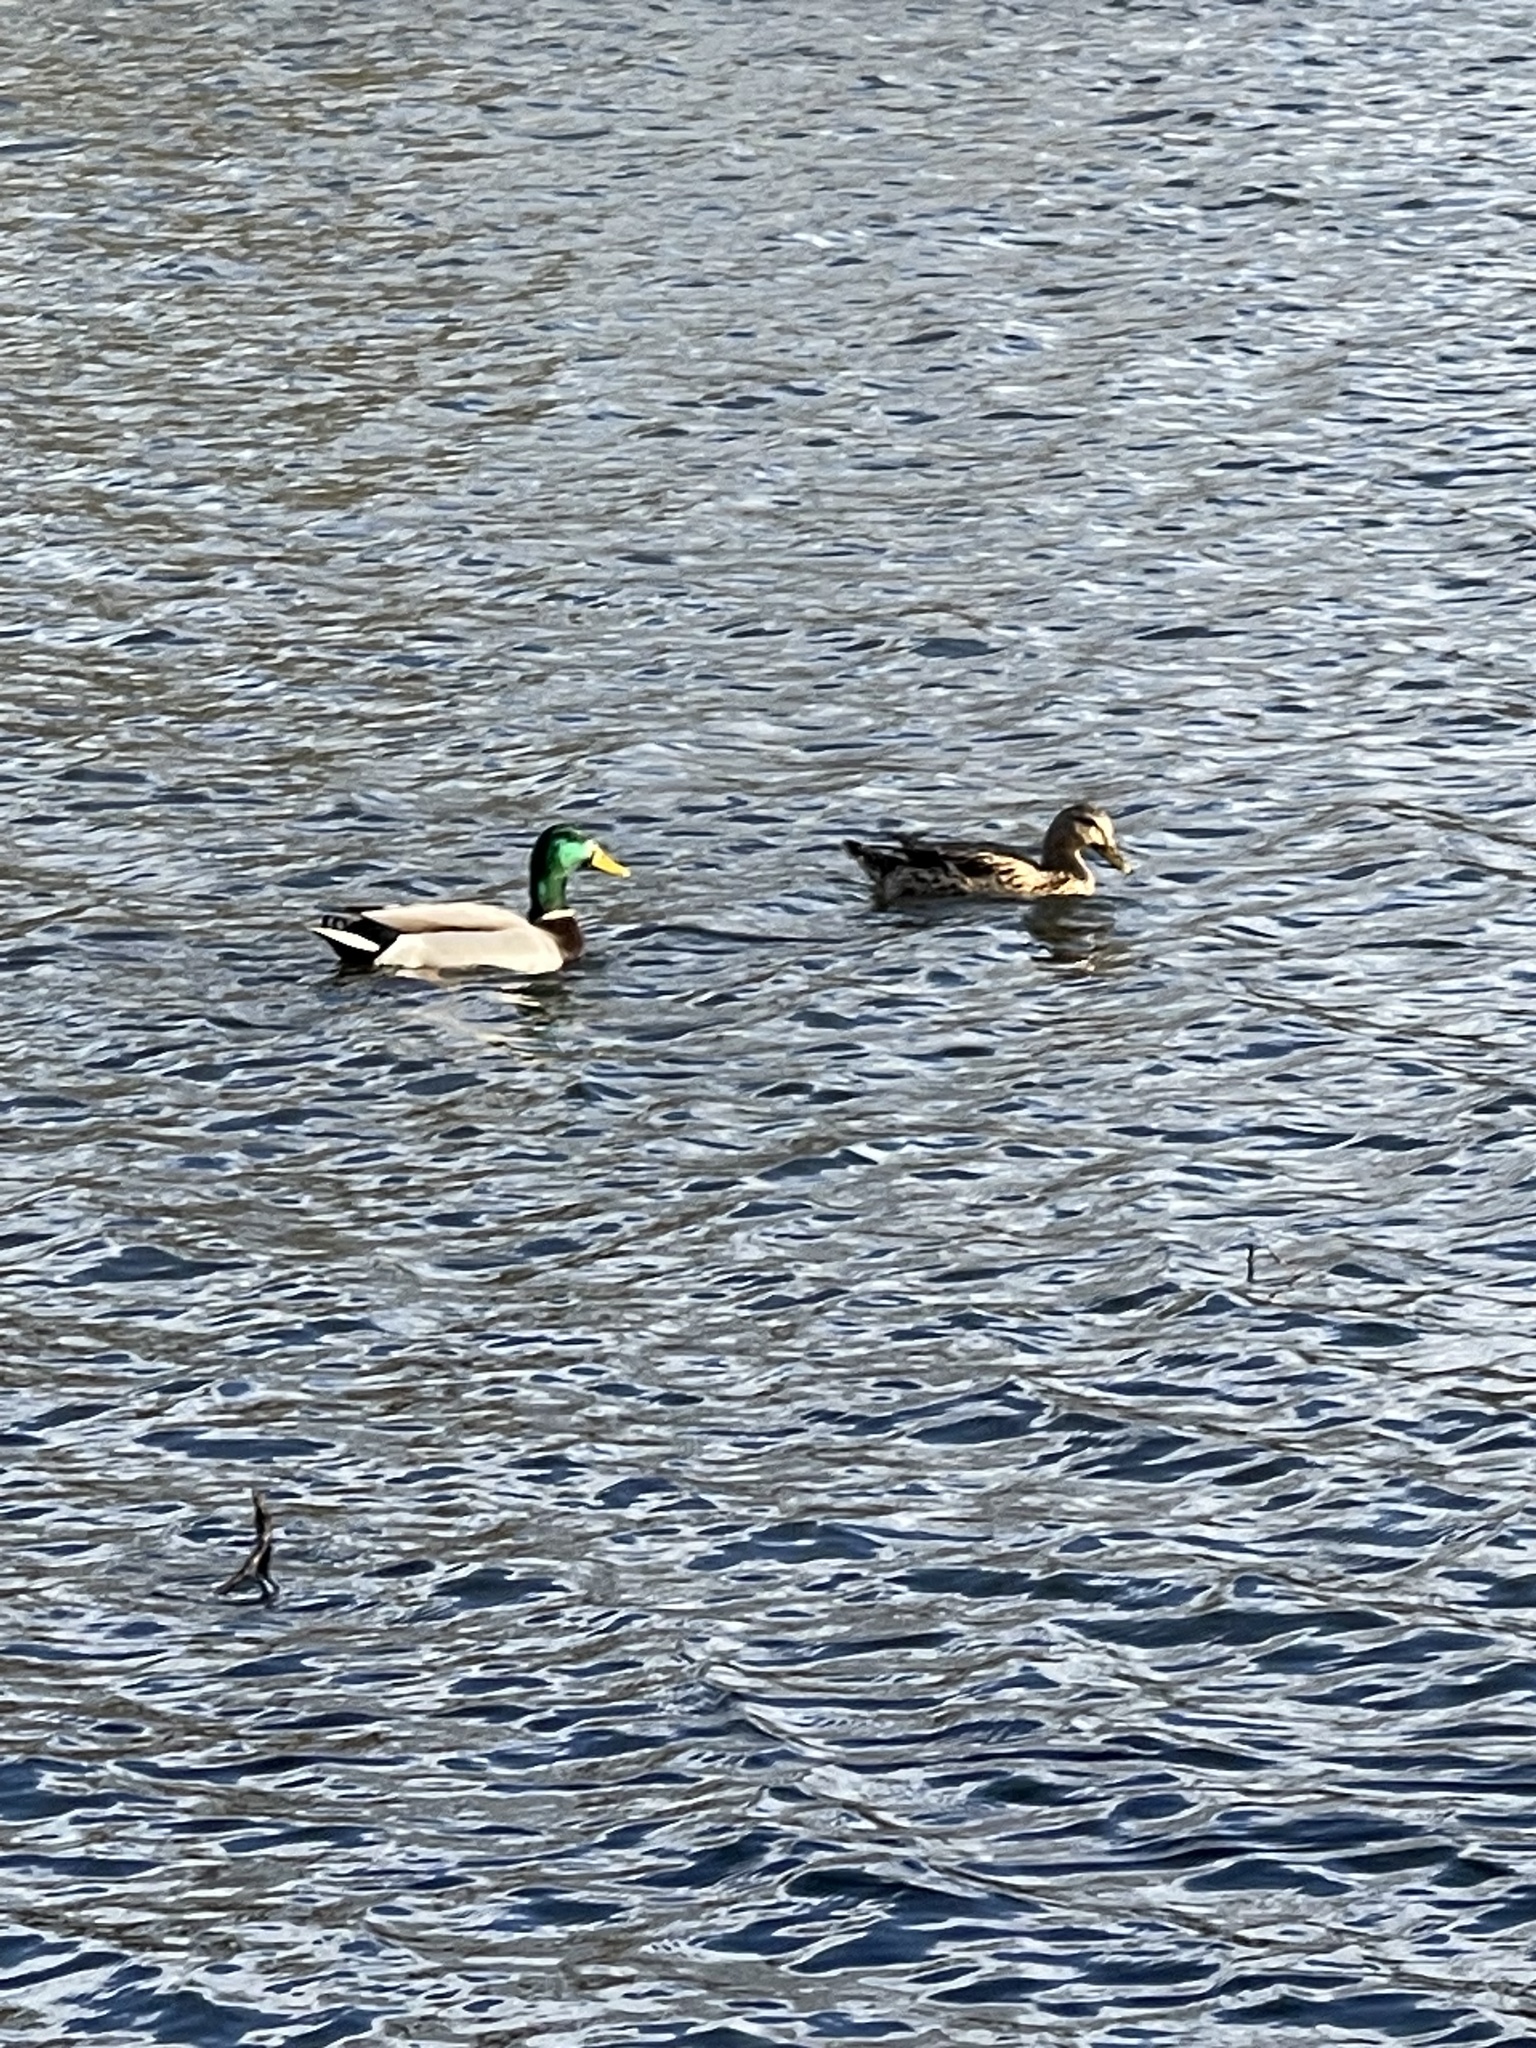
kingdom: Animalia
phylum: Chordata
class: Aves
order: Anseriformes
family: Anatidae
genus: Anas
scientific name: Anas platyrhynchos
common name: Mallard
